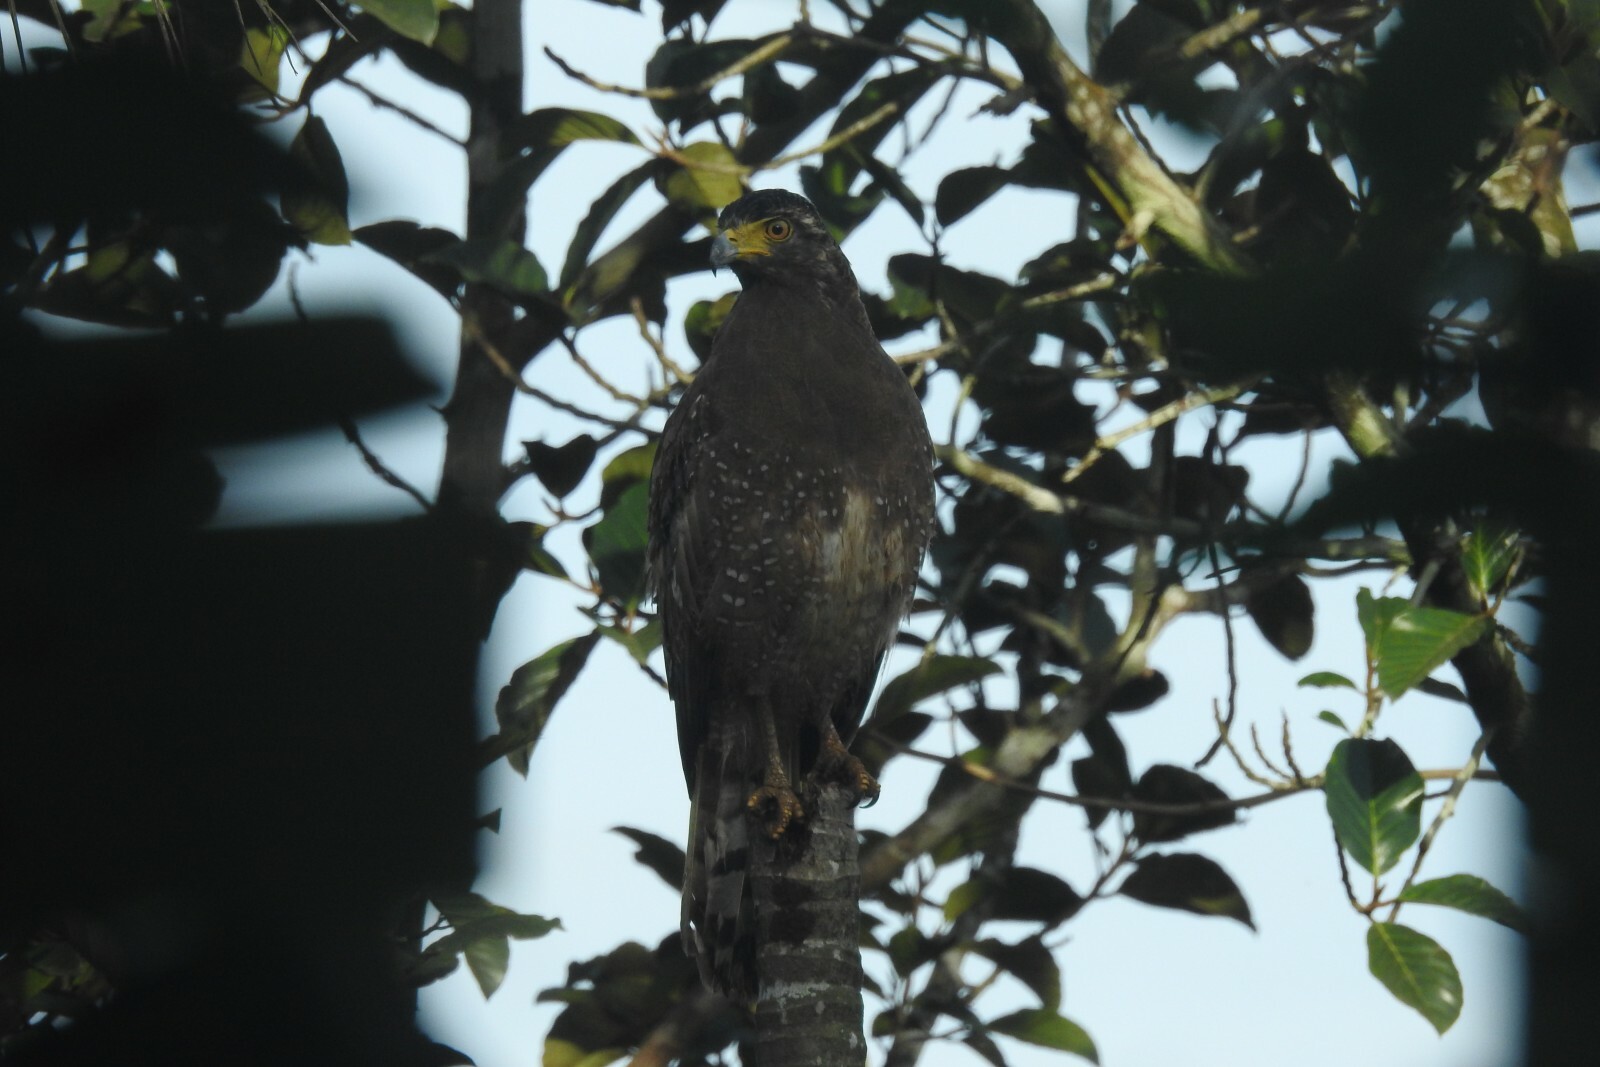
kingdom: Animalia
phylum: Chordata
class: Aves
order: Accipitriformes
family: Accipitridae
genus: Spilornis
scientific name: Spilornis cheela
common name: Crested serpent eagle
